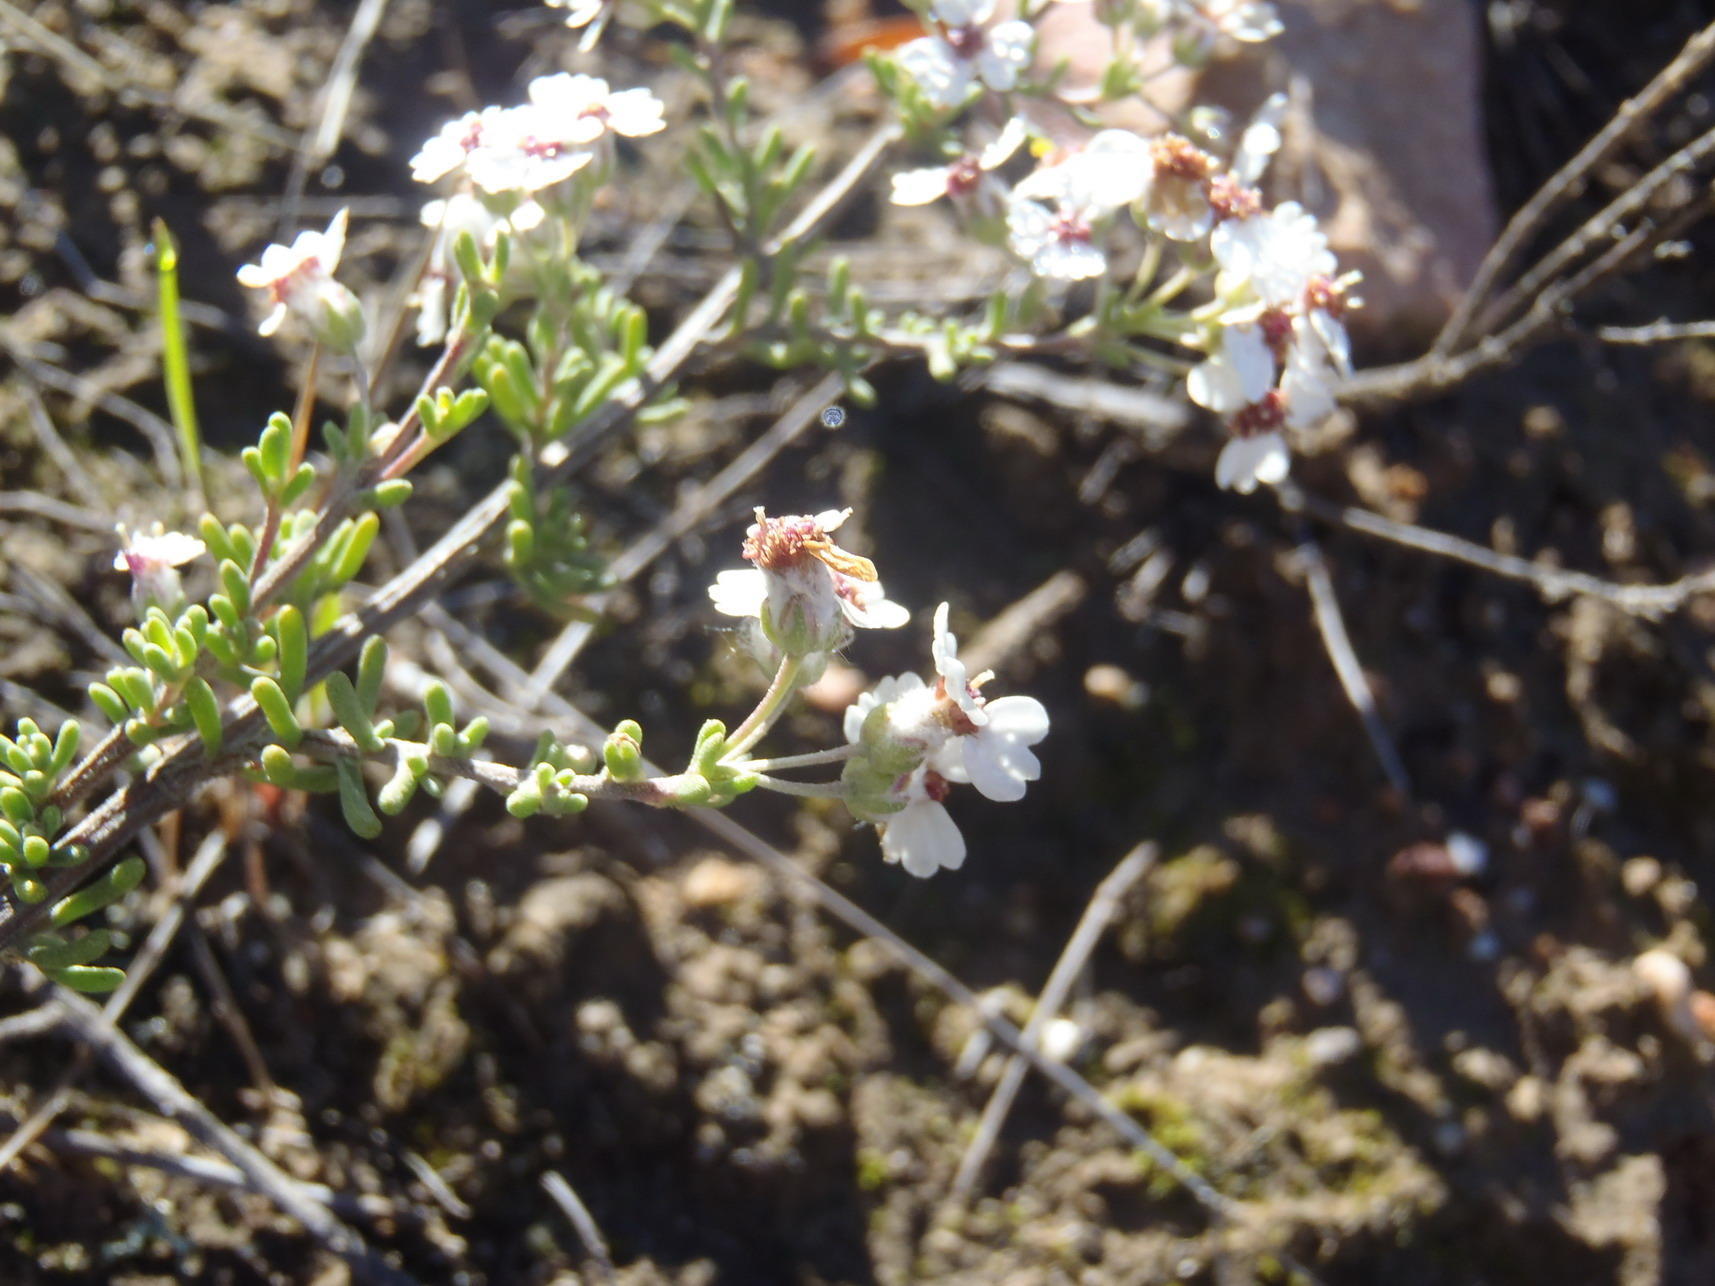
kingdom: Plantae
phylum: Tracheophyta
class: Magnoliopsida
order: Asterales
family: Asteraceae
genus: Eriocephalus
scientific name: Eriocephalus tenuipes
